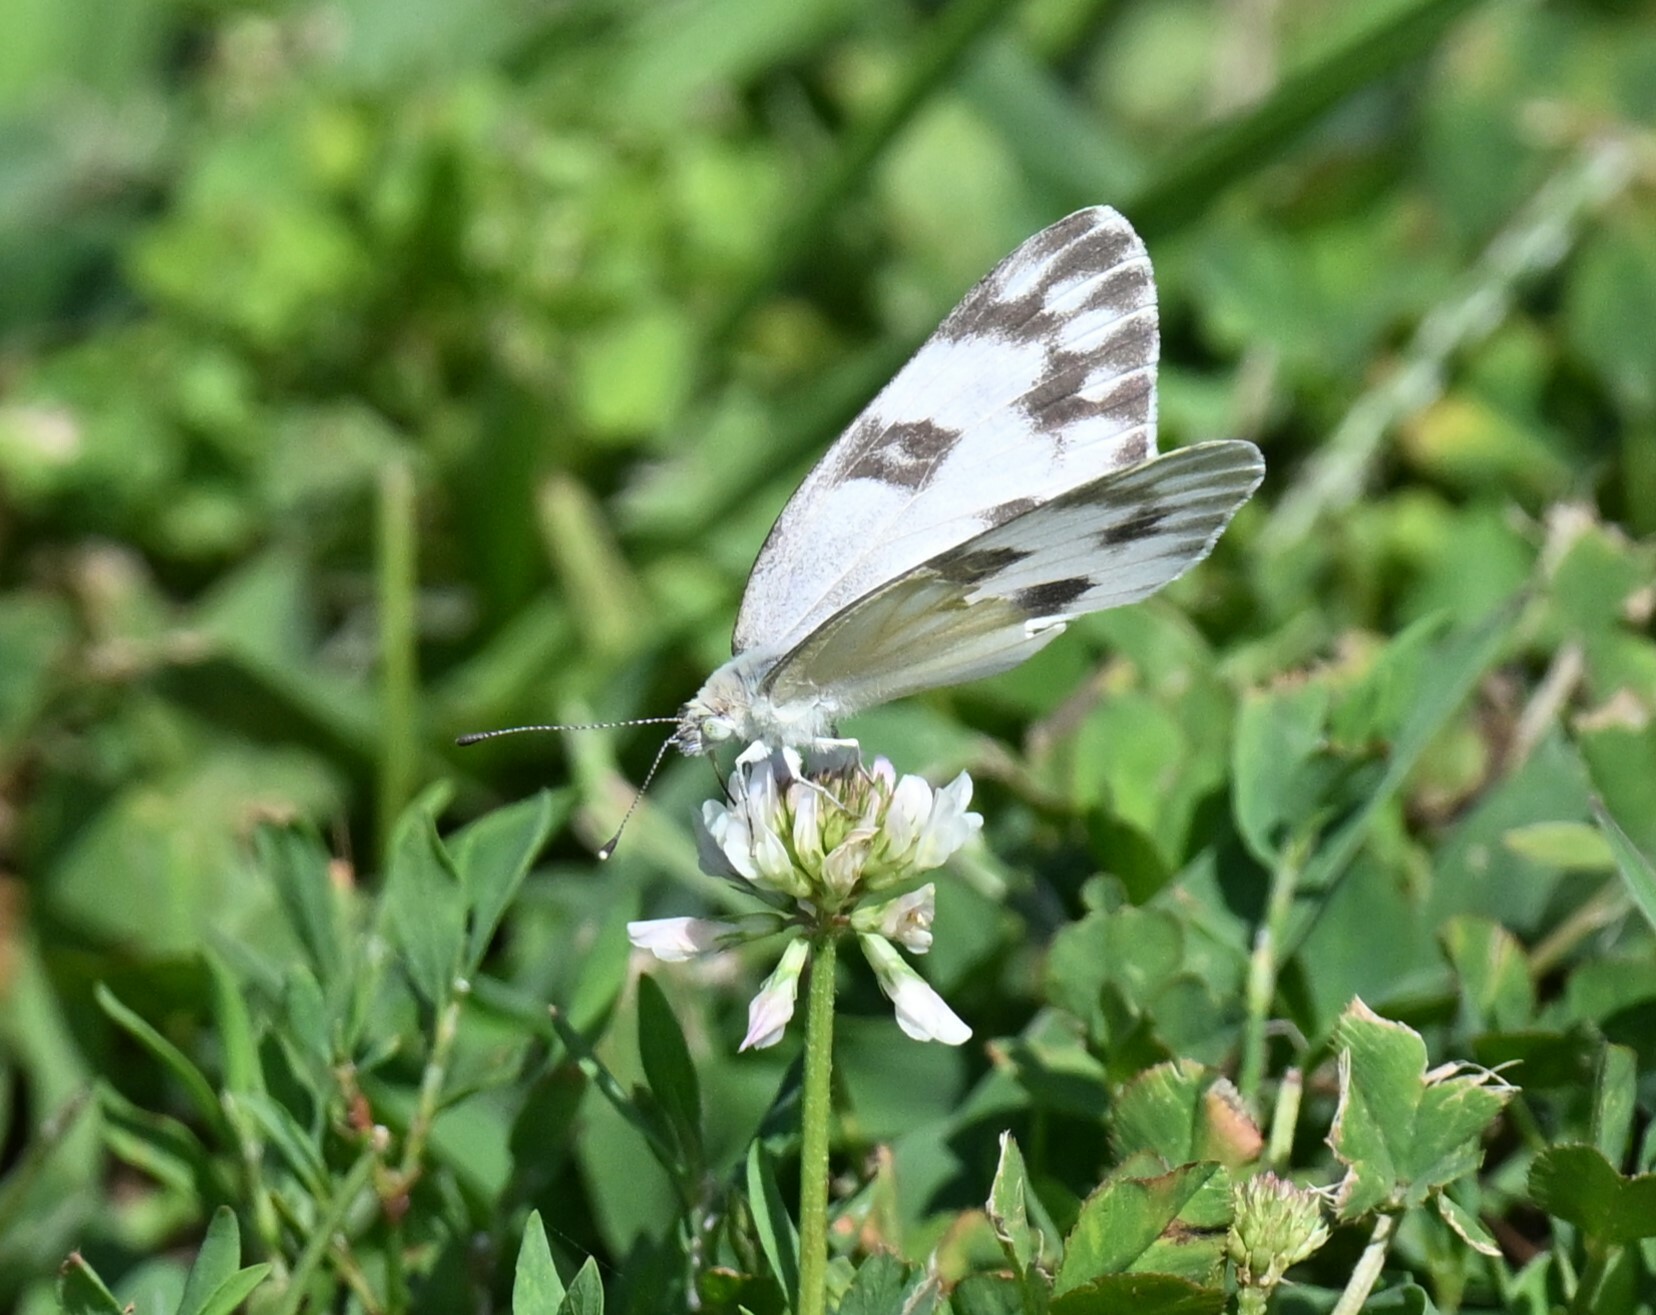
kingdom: Animalia
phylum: Arthropoda
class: Insecta
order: Lepidoptera
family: Pieridae
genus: Pontia
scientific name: Pontia protodice
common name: Checkered white
